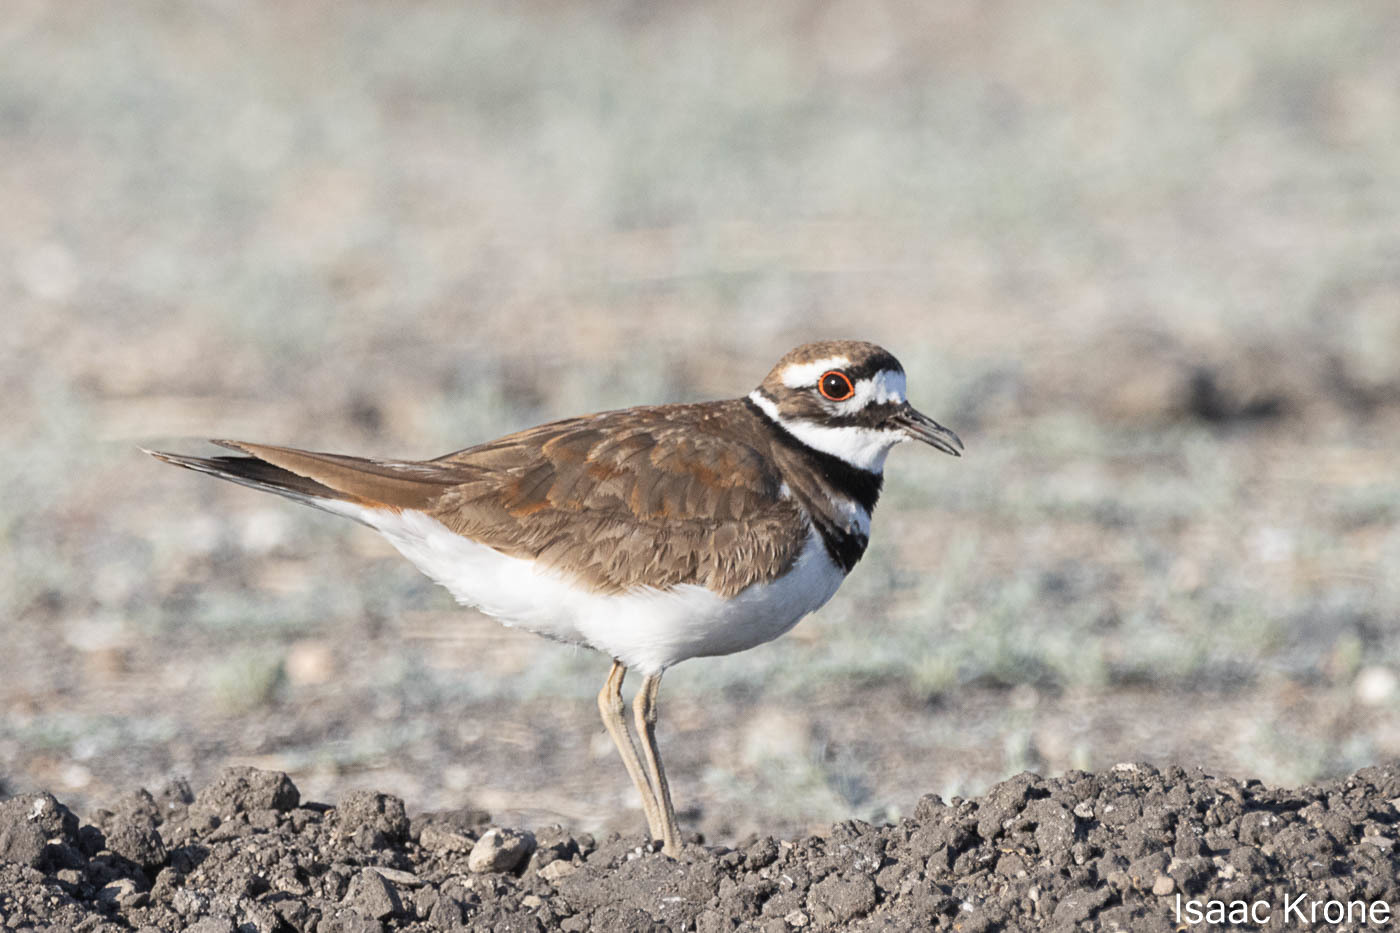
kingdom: Animalia
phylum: Chordata
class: Aves
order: Charadriiformes
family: Charadriidae
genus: Charadrius
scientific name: Charadrius vociferus
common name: Killdeer
